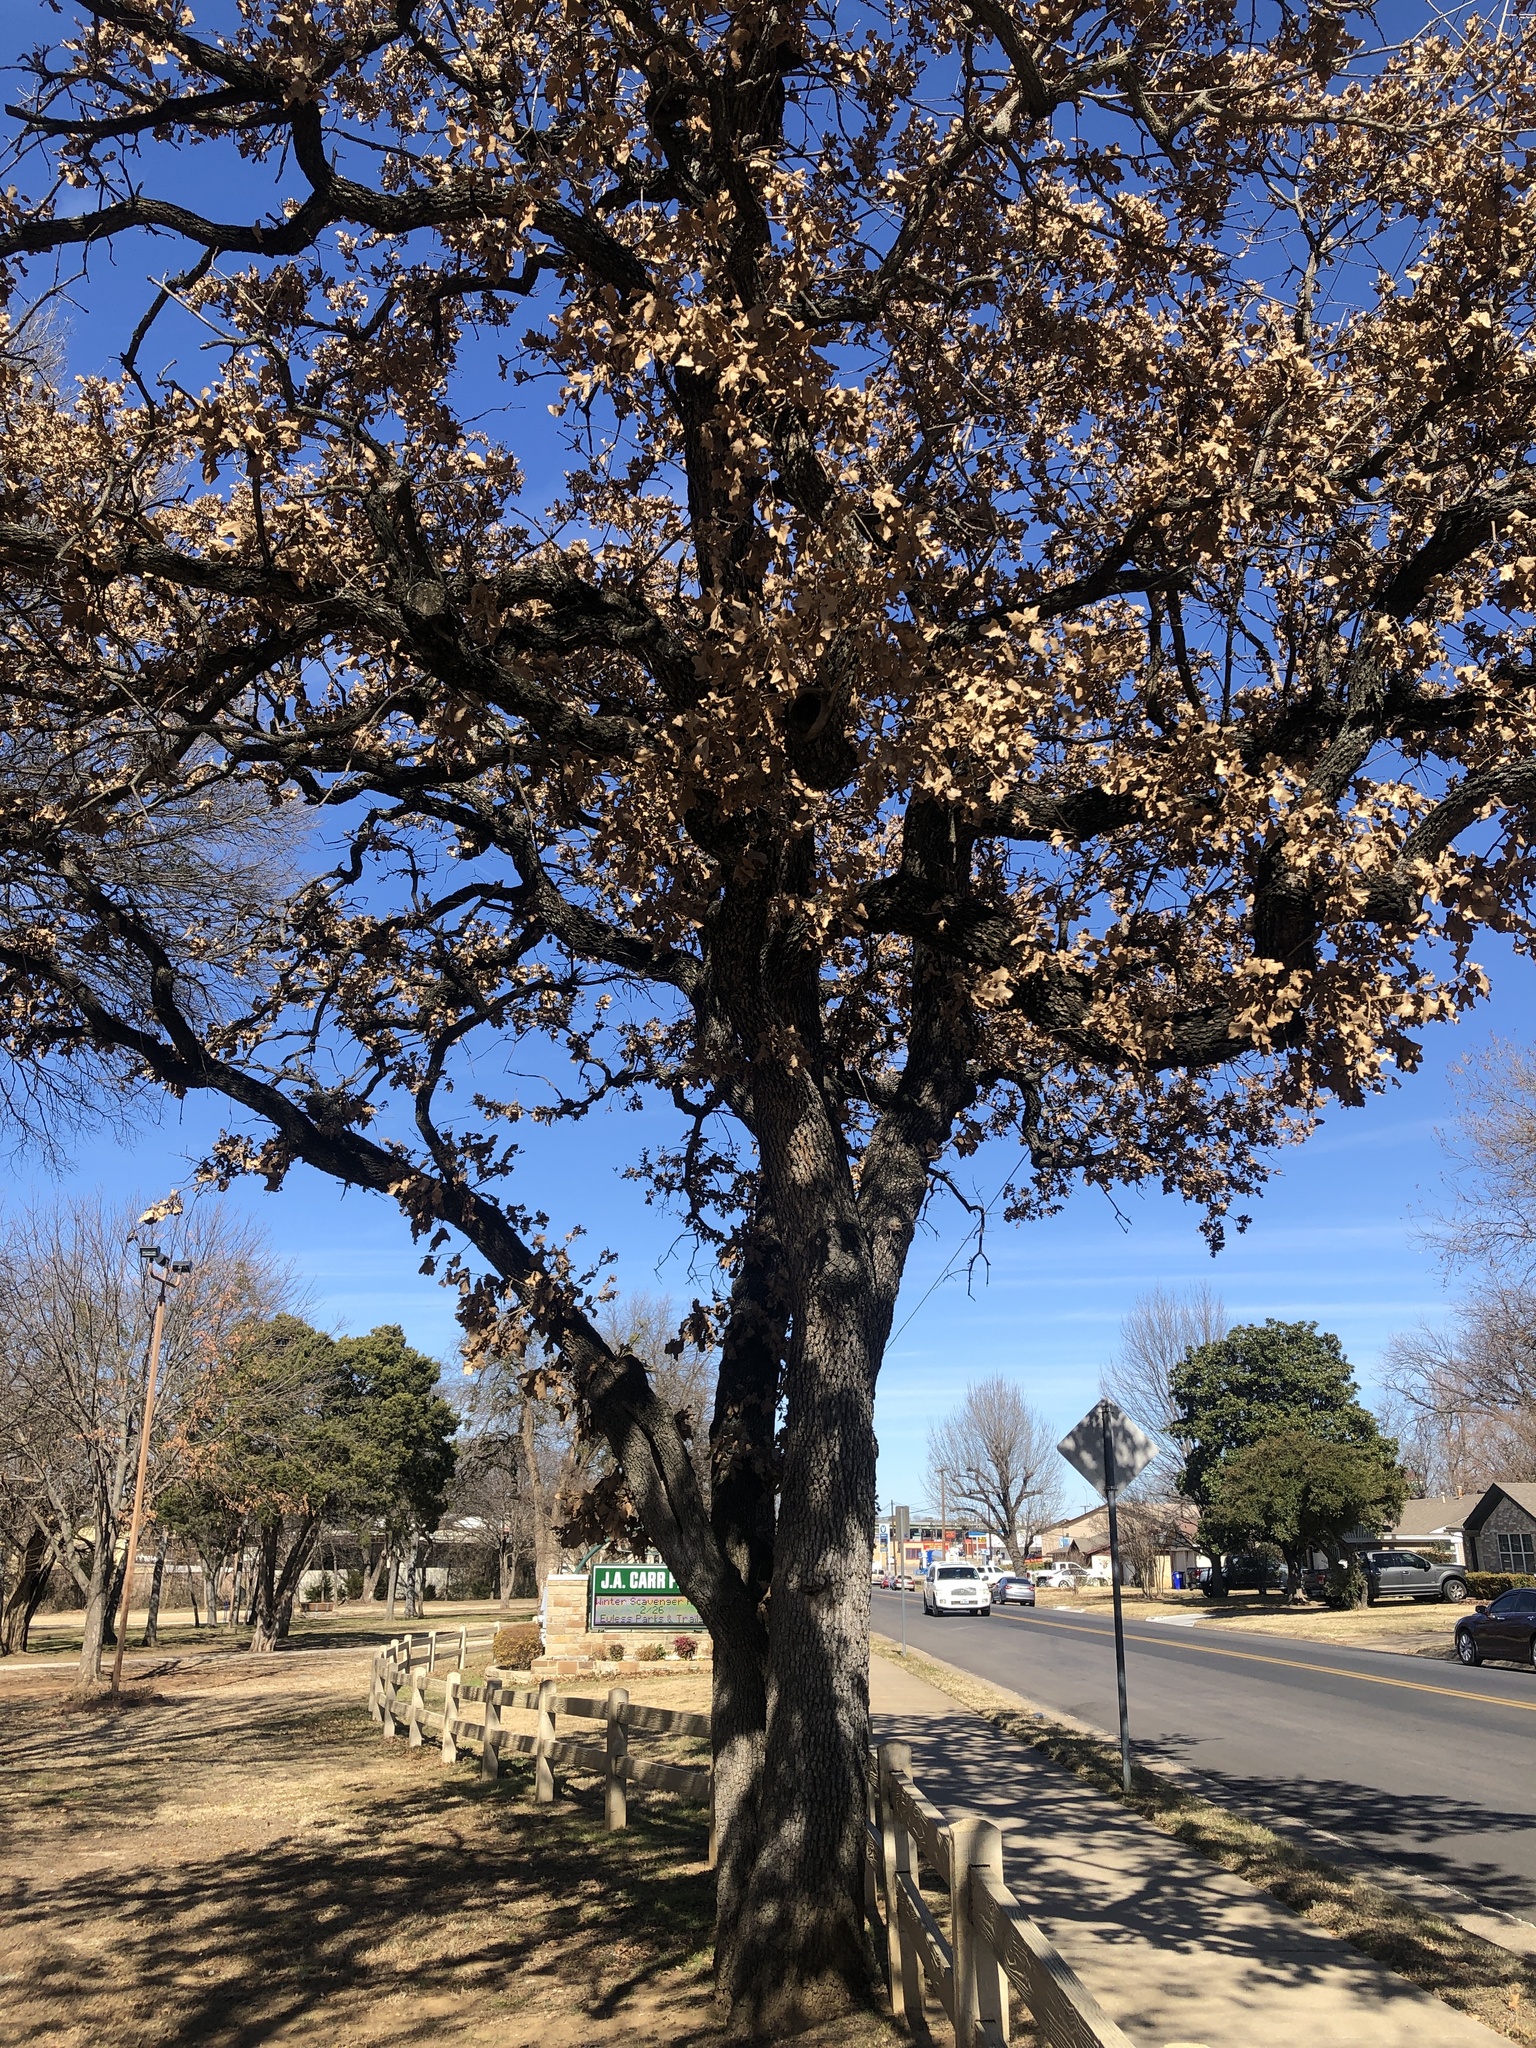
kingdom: Plantae
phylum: Tracheophyta
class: Magnoliopsida
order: Fagales
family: Fagaceae
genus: Quercus
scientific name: Quercus stellata
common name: Post oak
